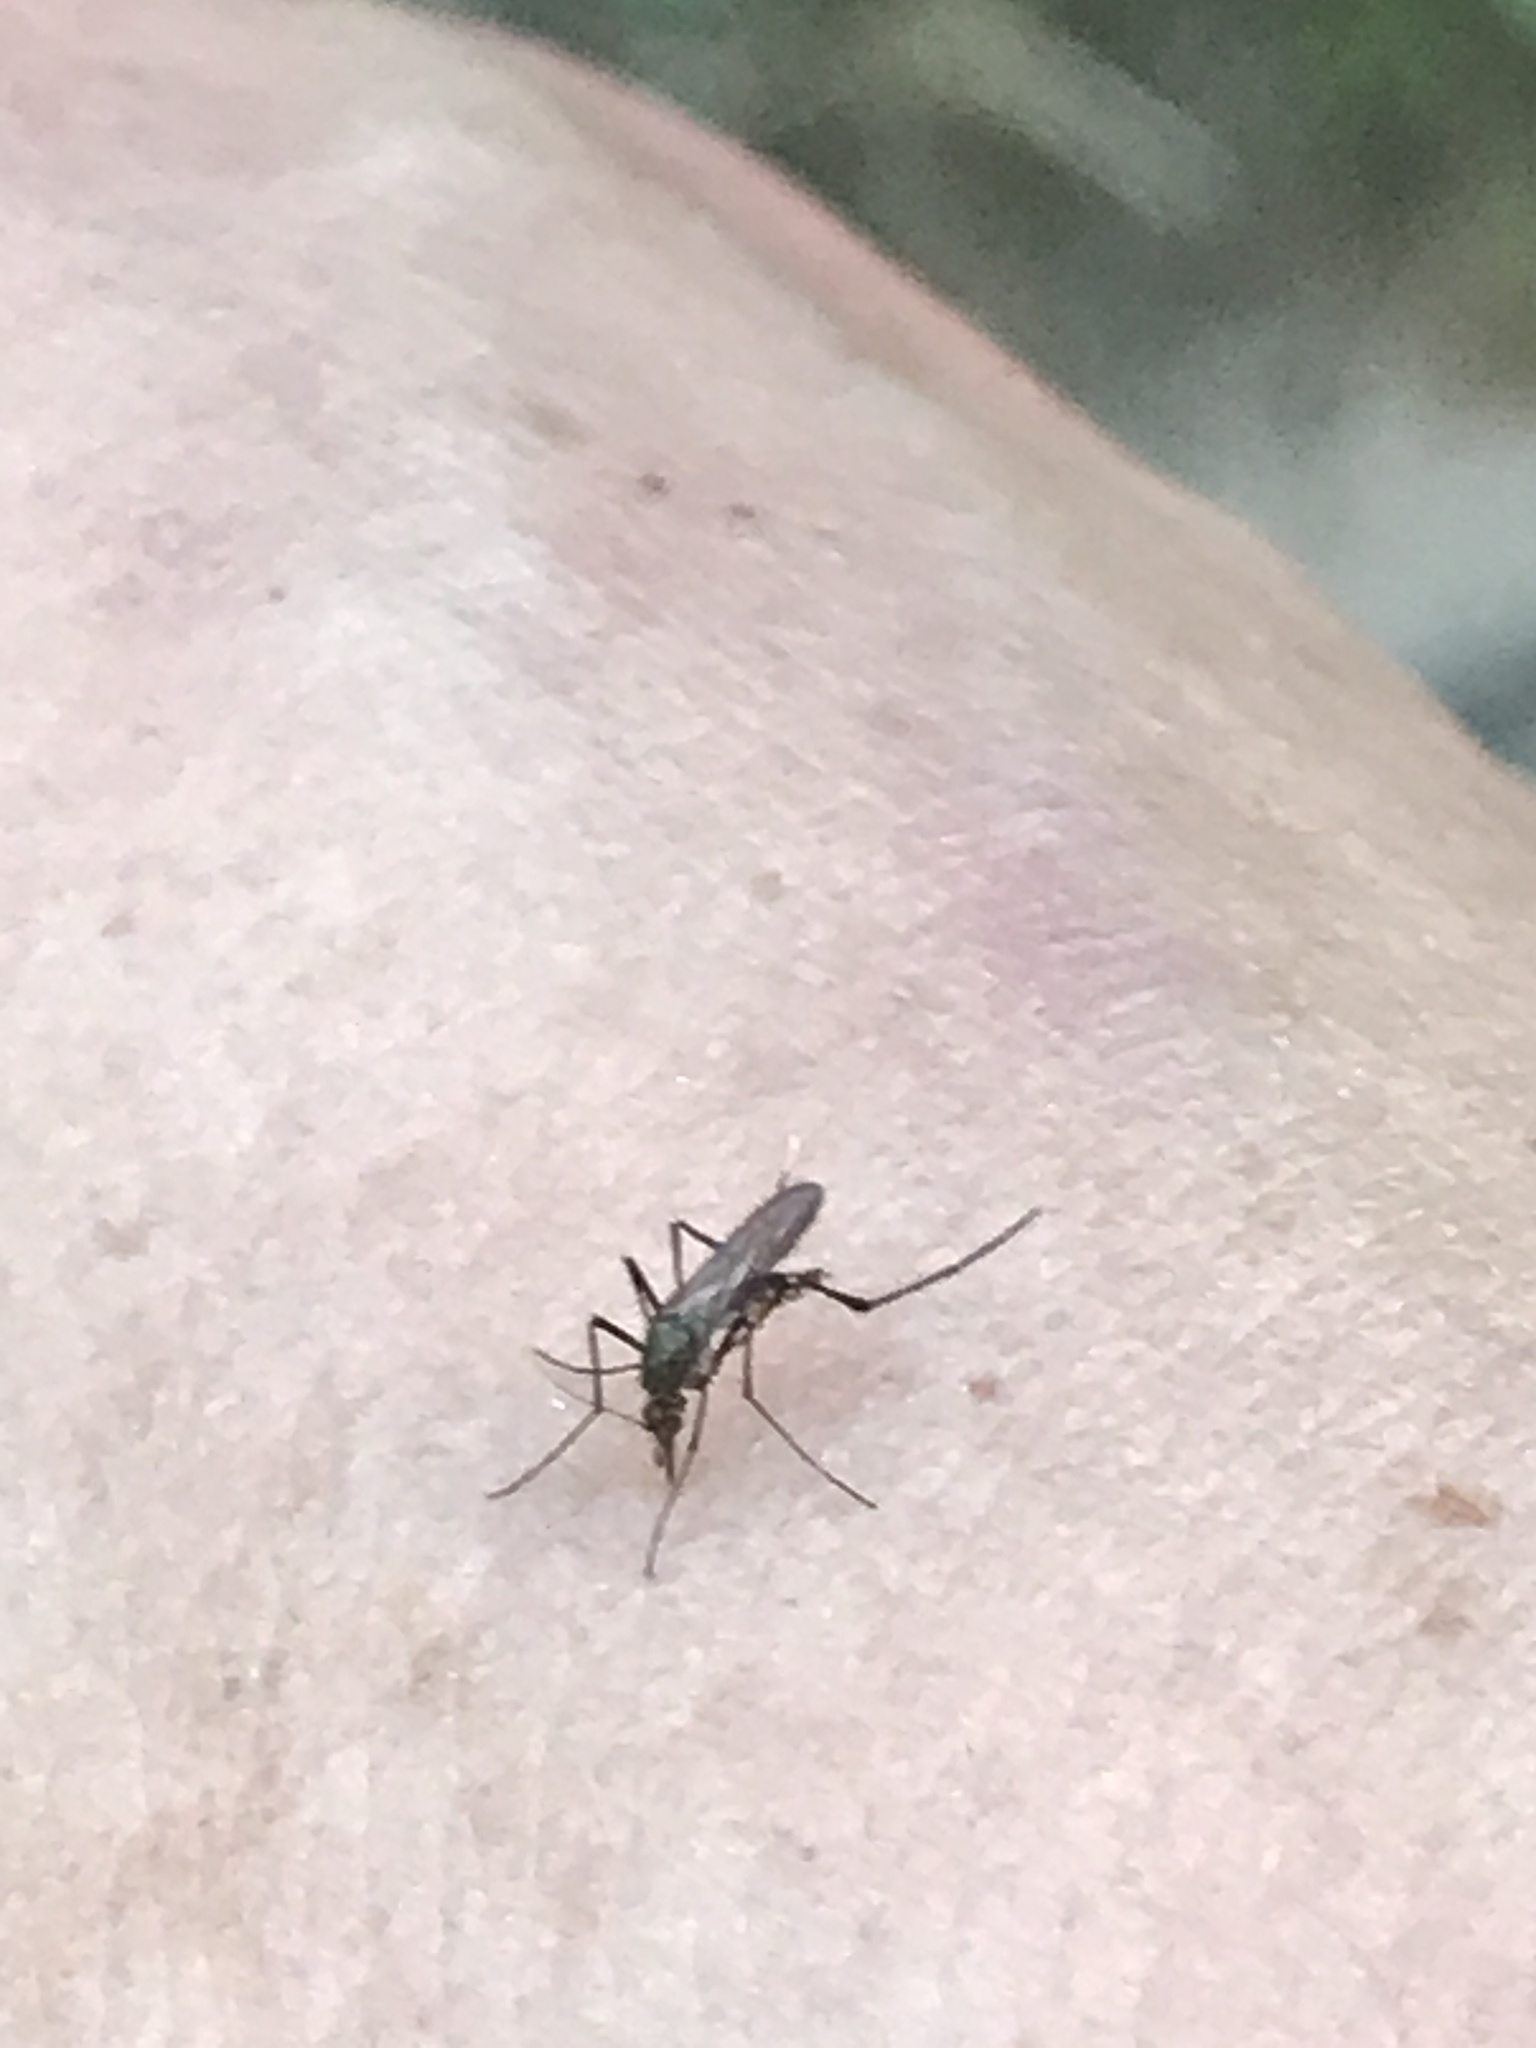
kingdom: Animalia
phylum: Arthropoda
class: Insecta
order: Diptera
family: Culicidae
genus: Psorophora
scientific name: Psorophora ferox
